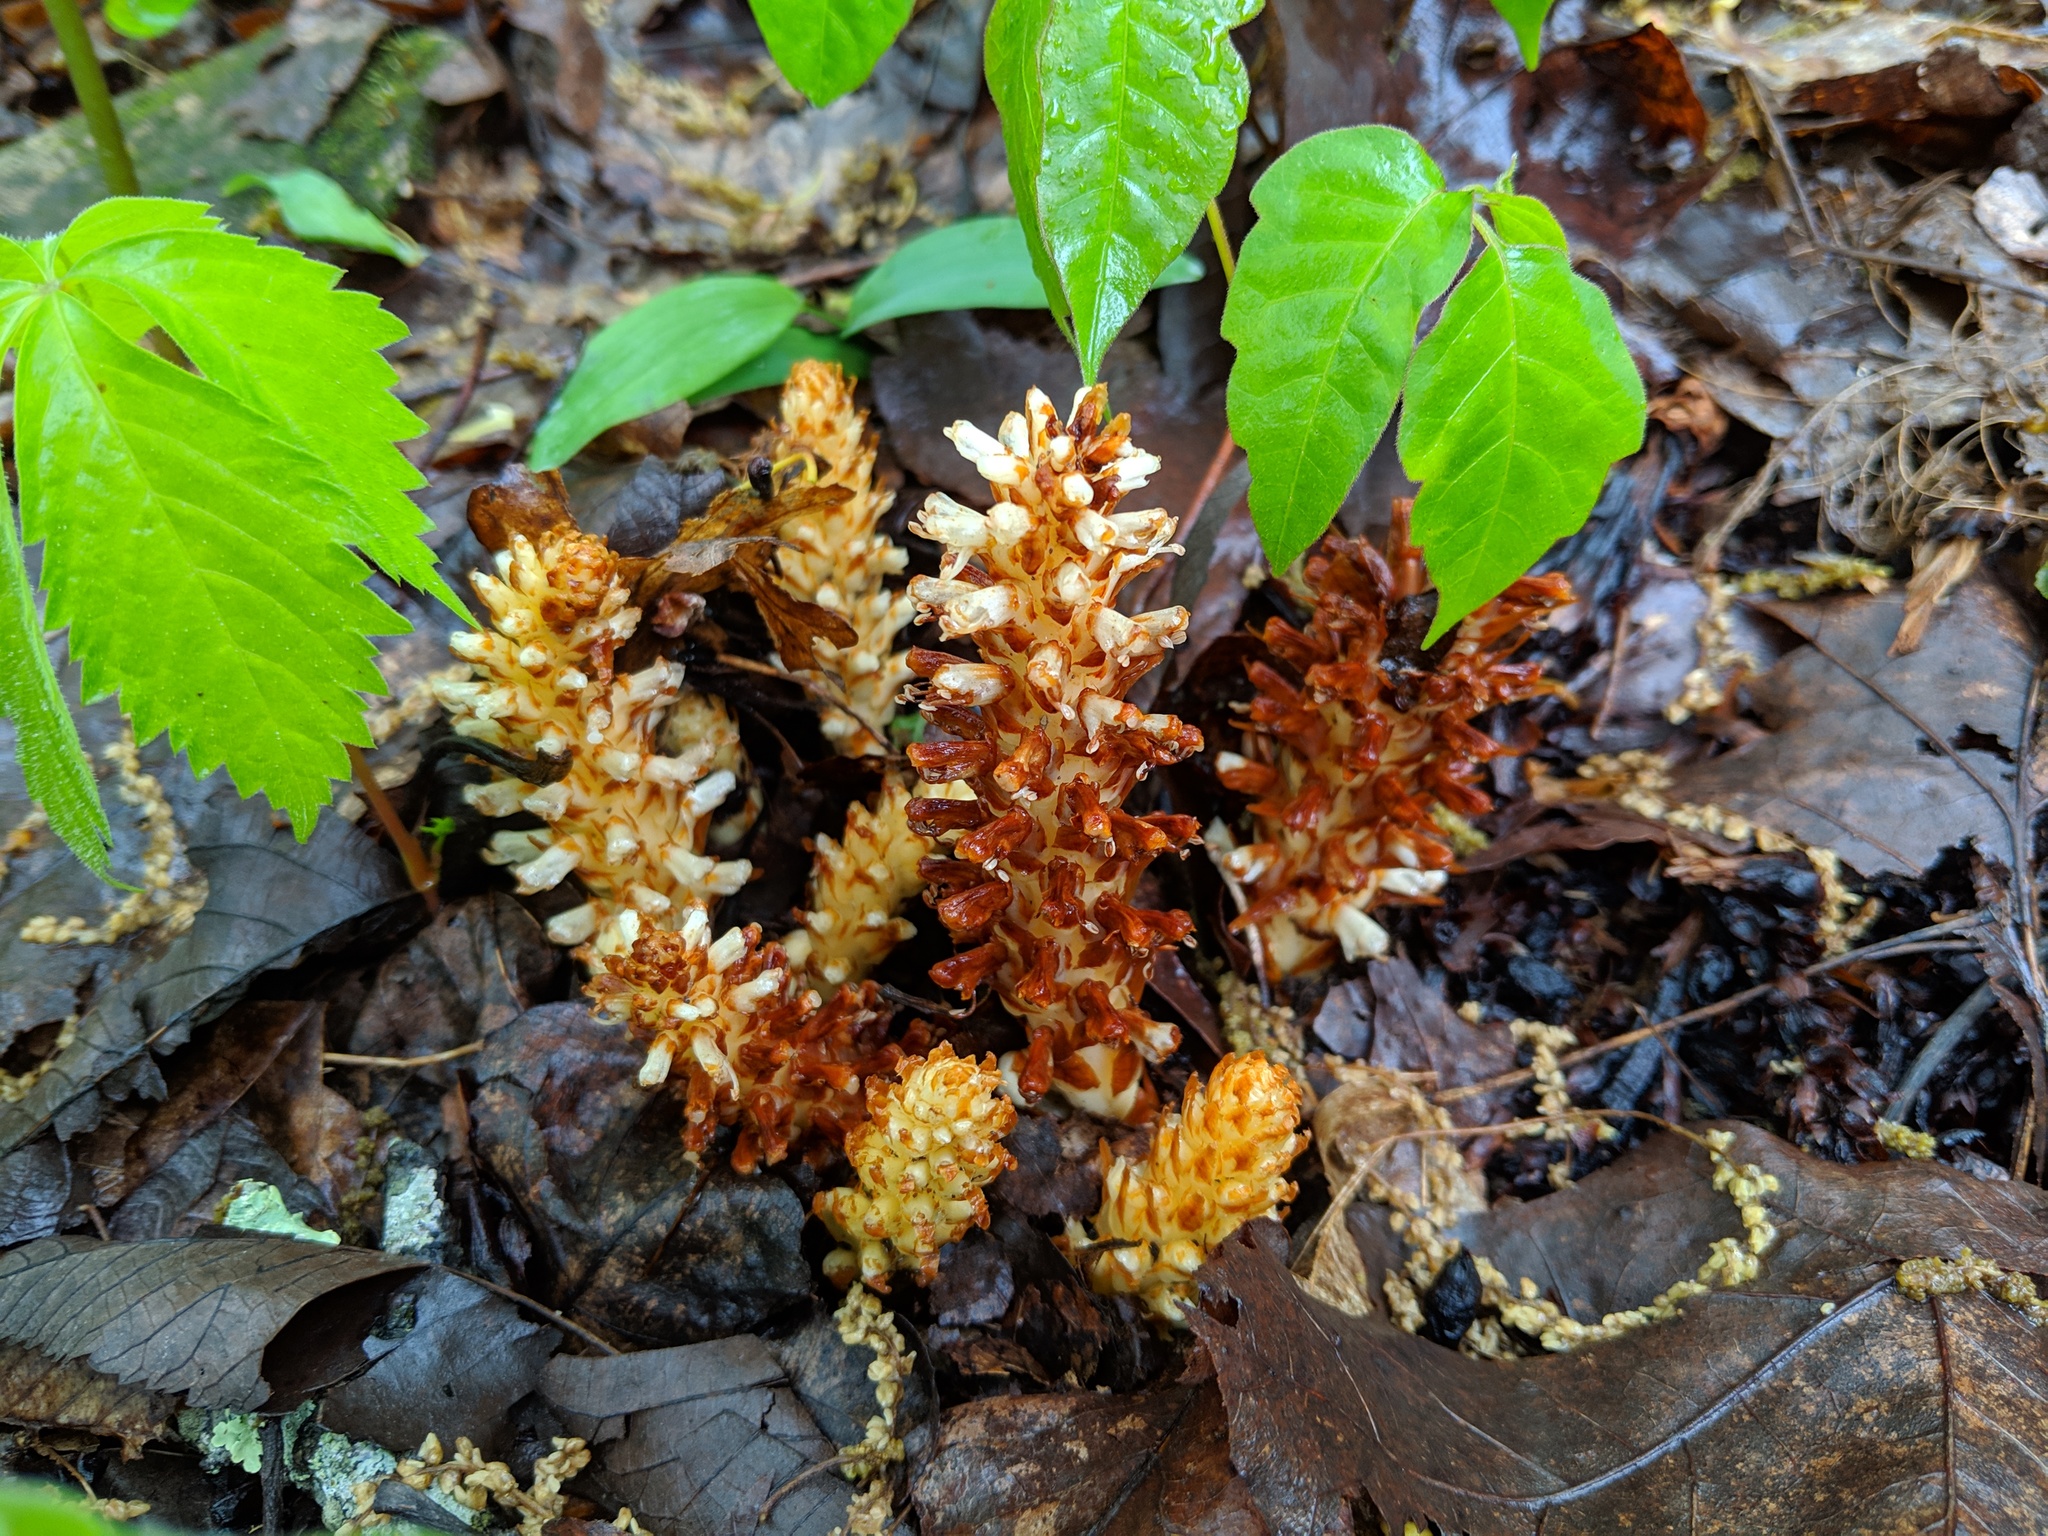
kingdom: Plantae
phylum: Tracheophyta
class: Magnoliopsida
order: Lamiales
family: Orobanchaceae
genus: Conopholis
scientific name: Conopholis americana
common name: American cancer-root
